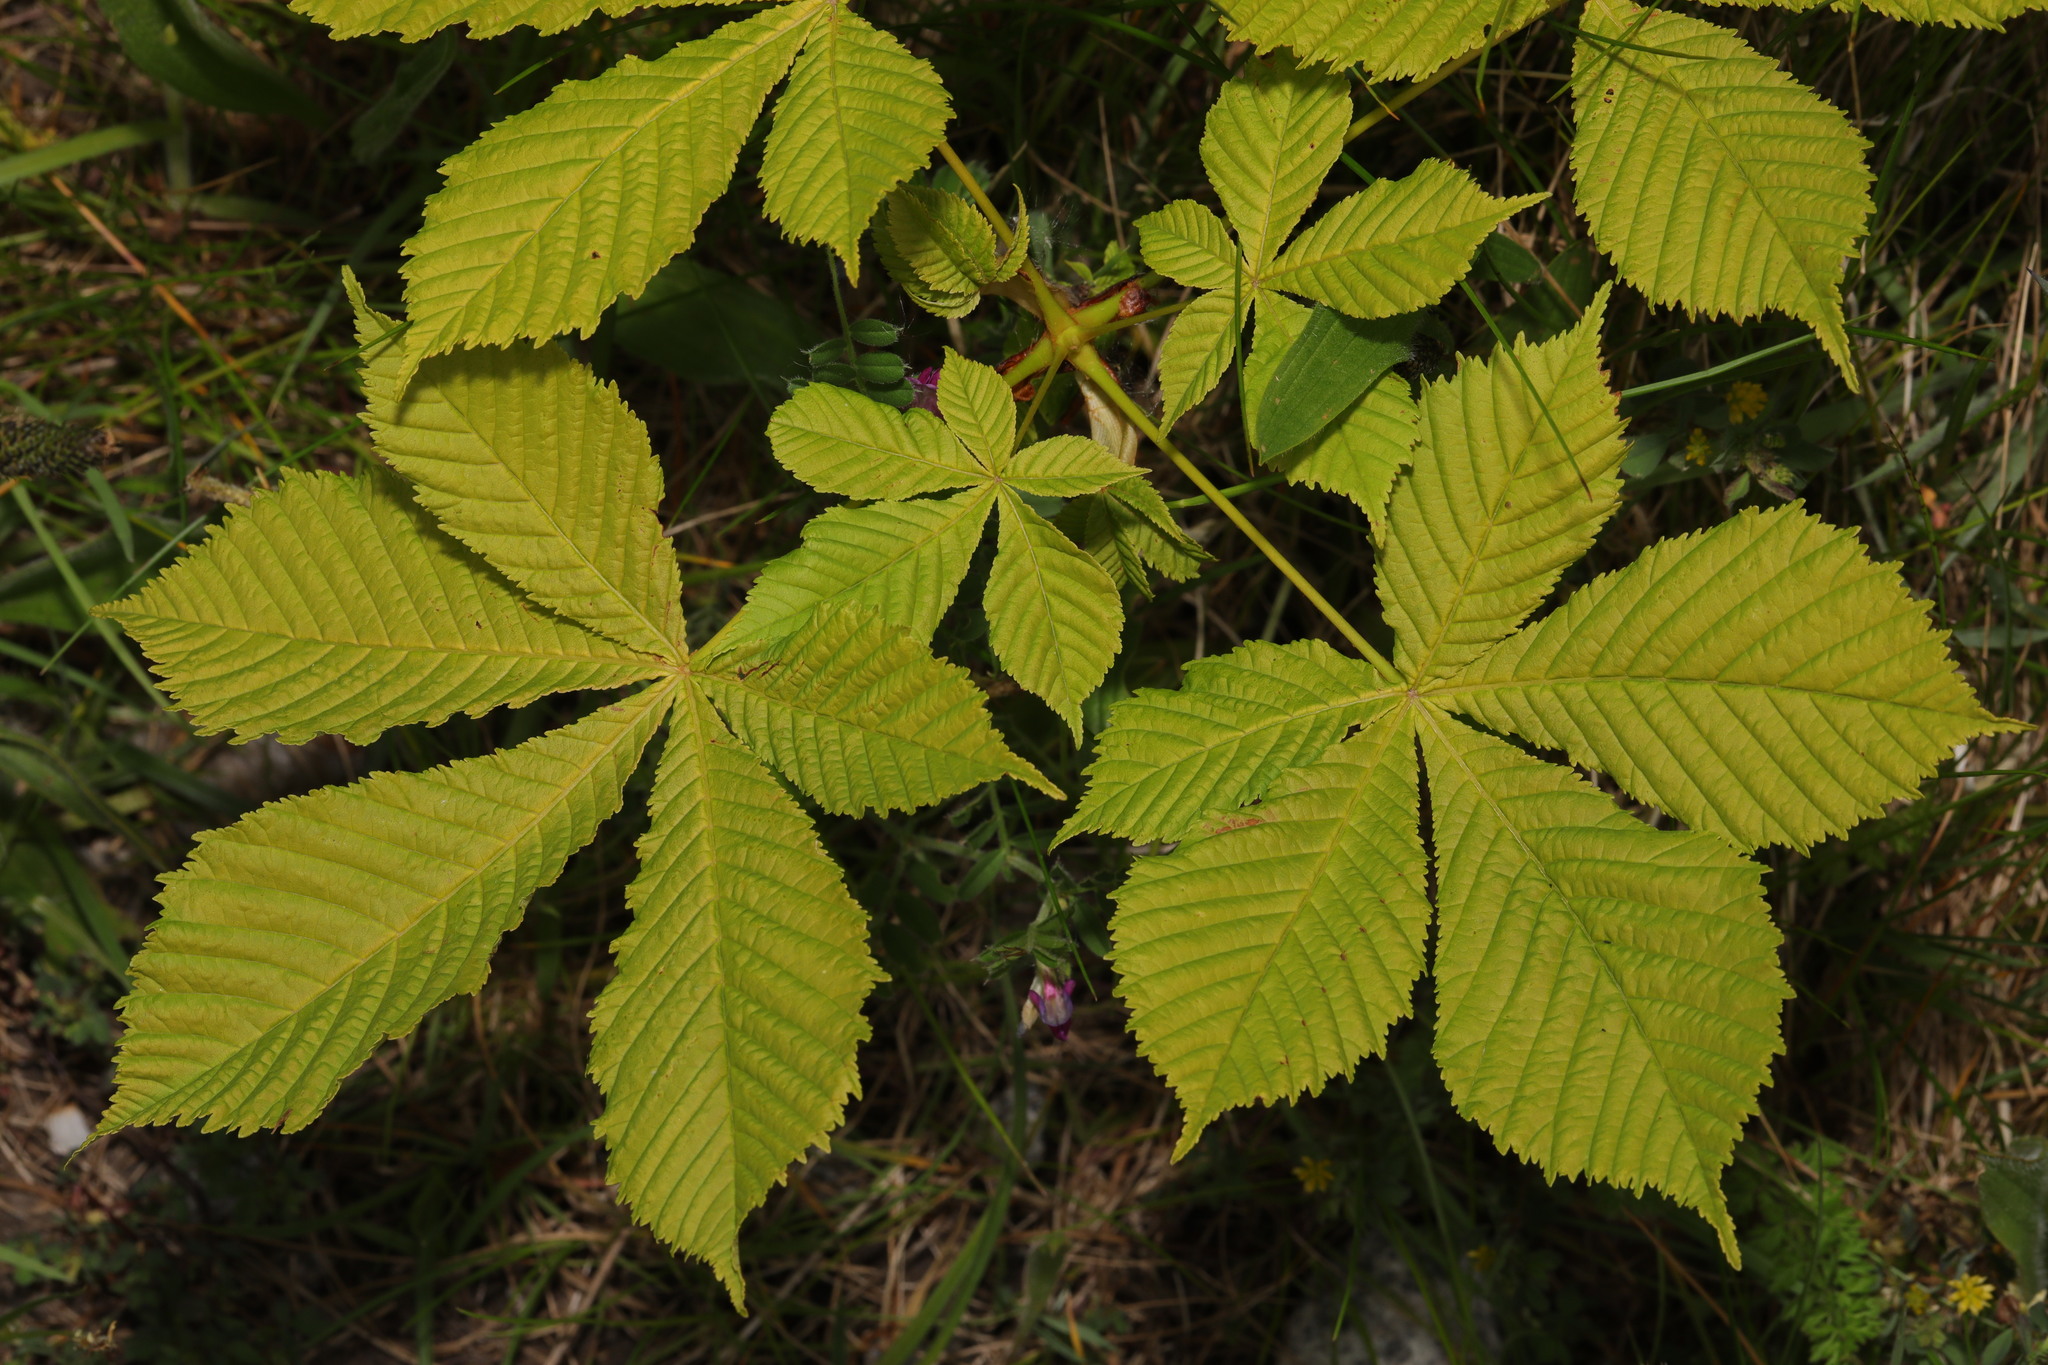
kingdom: Plantae
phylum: Tracheophyta
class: Magnoliopsida
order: Sapindales
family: Sapindaceae
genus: Aesculus
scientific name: Aesculus hippocastanum
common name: Horse-chestnut
